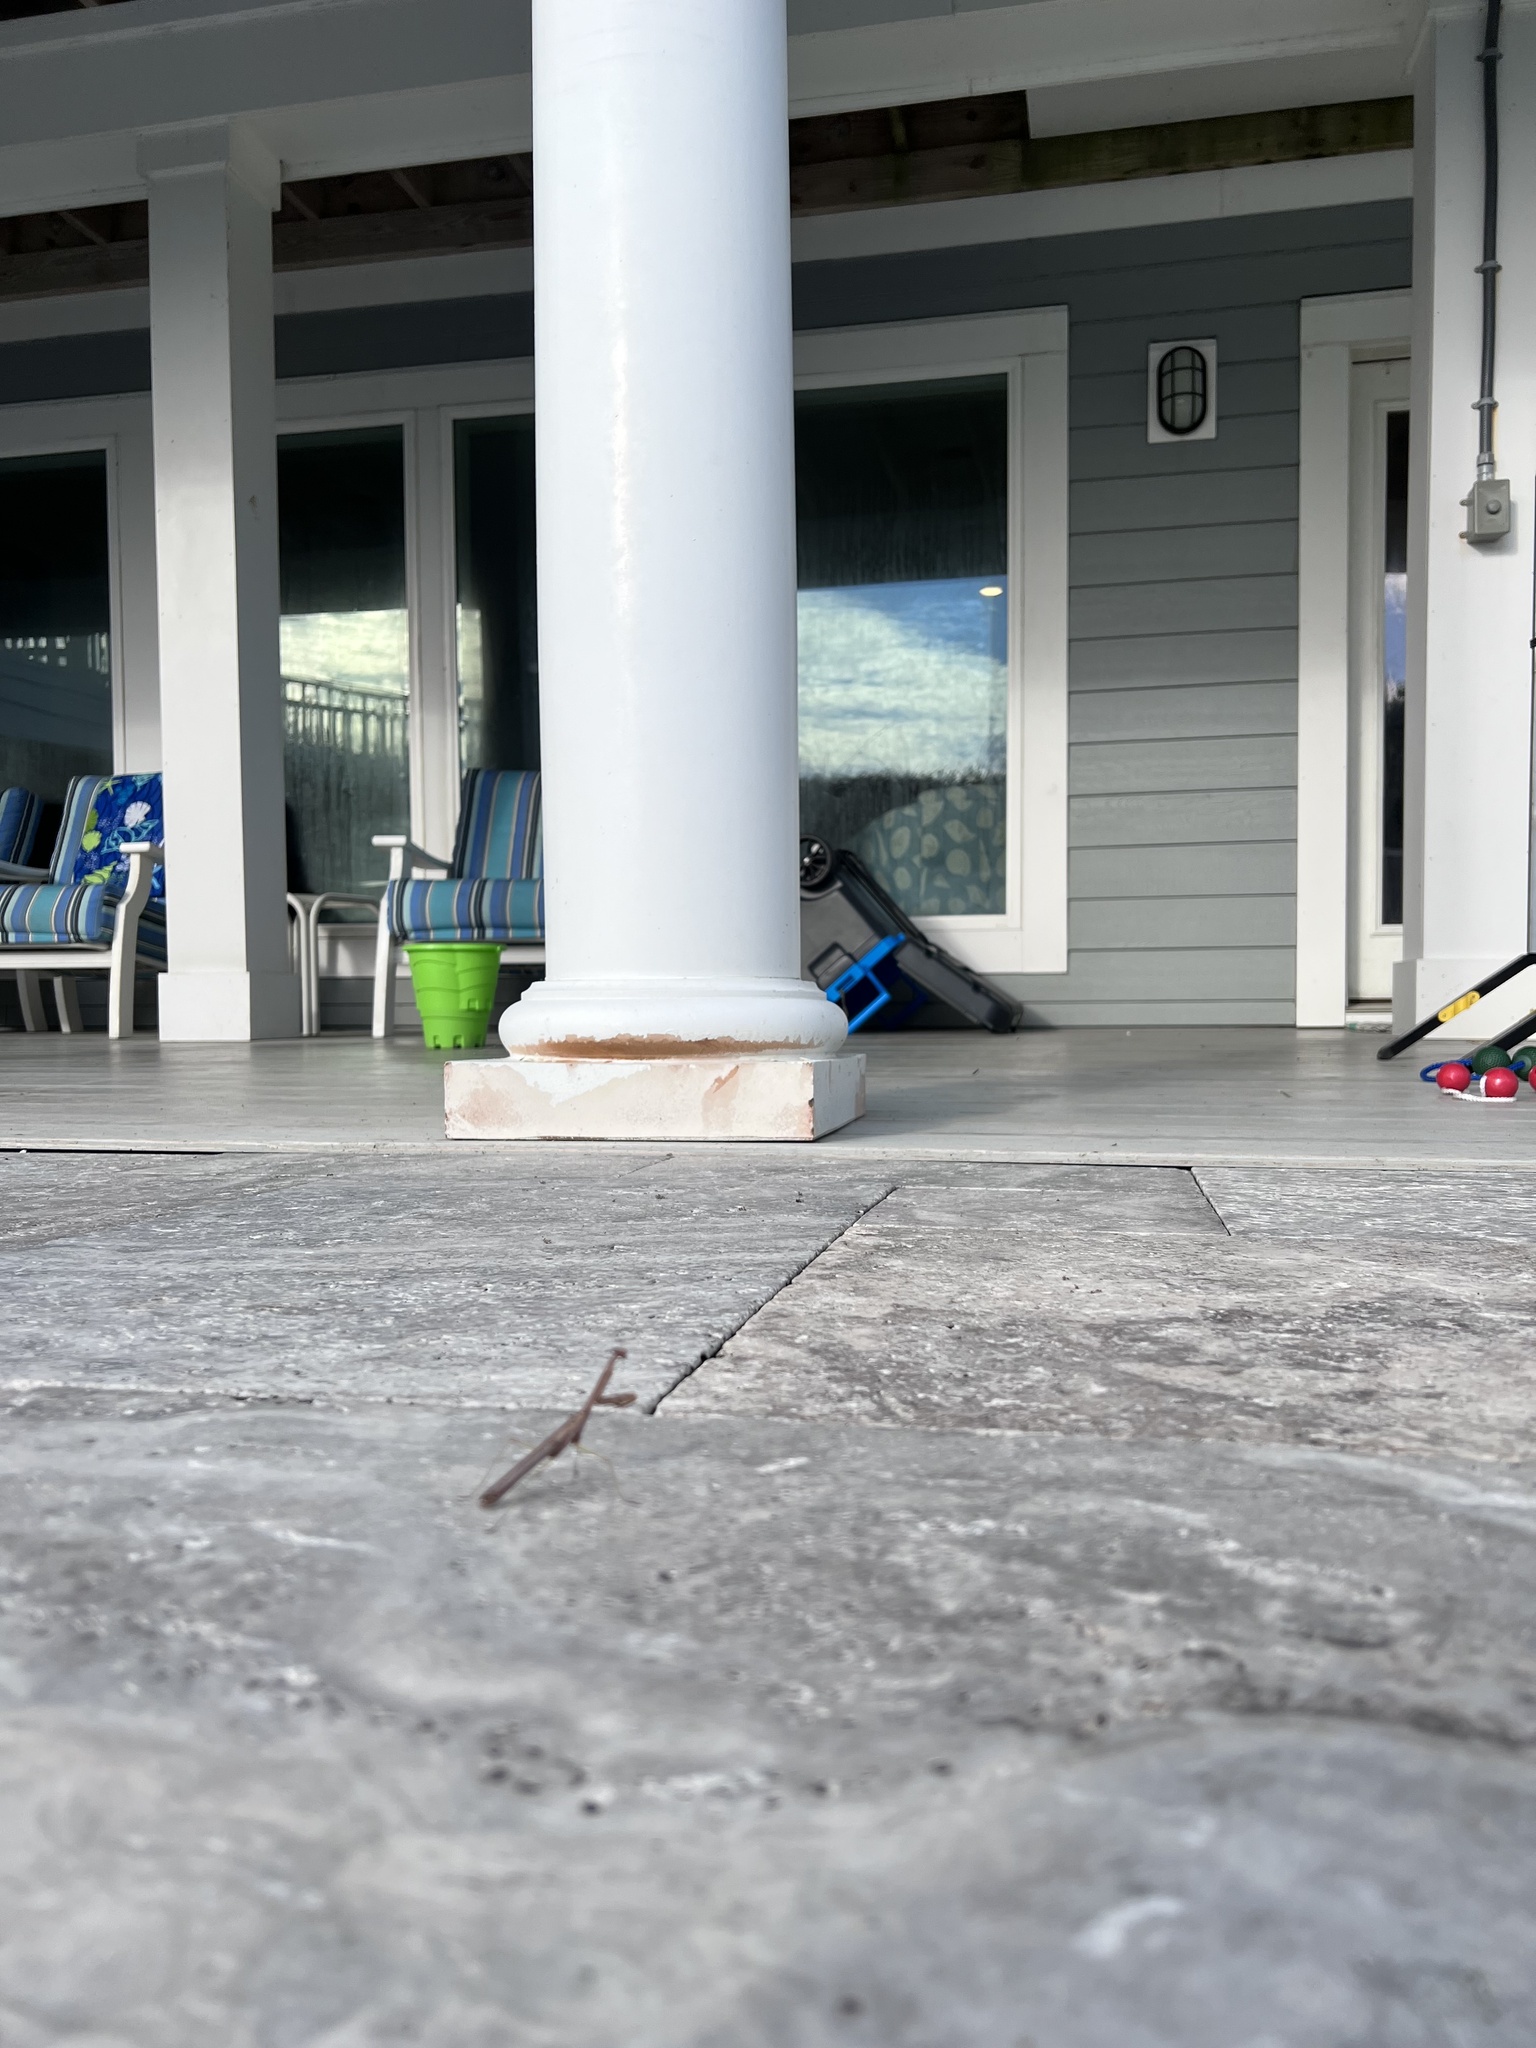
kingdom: Animalia
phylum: Arthropoda
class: Insecta
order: Mantodea
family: Mantidae
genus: Stagmomantis
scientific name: Stagmomantis carolina
